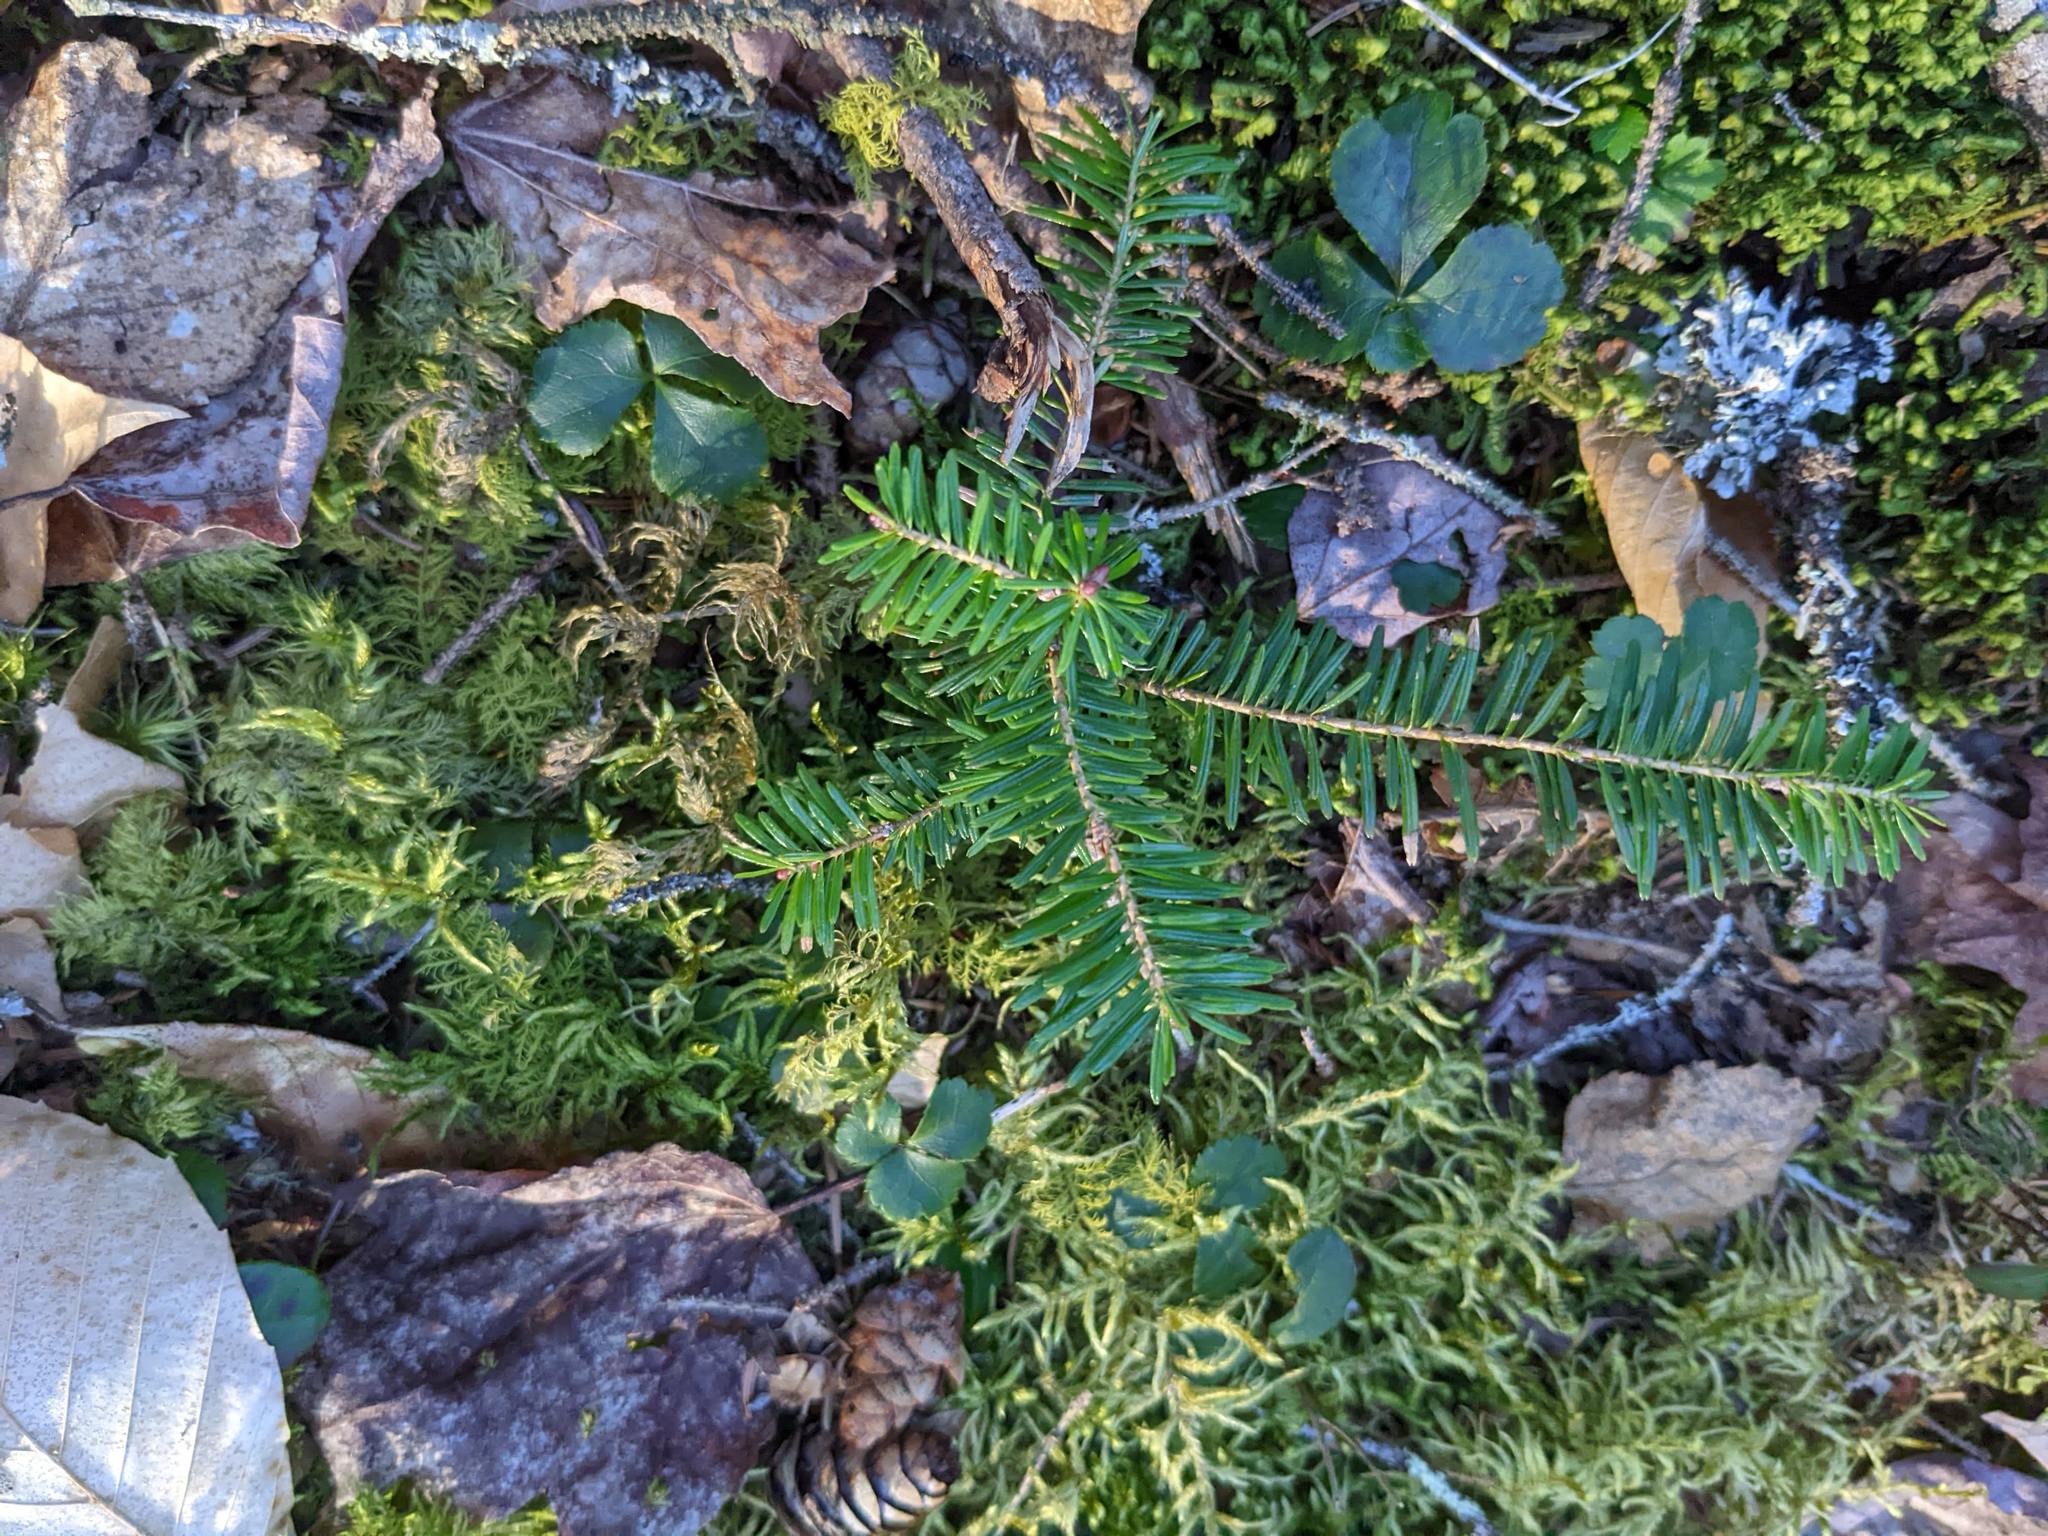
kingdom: Plantae
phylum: Tracheophyta
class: Magnoliopsida
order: Ranunculales
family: Ranunculaceae
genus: Coptis
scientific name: Coptis trifolia
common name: Canker-root
